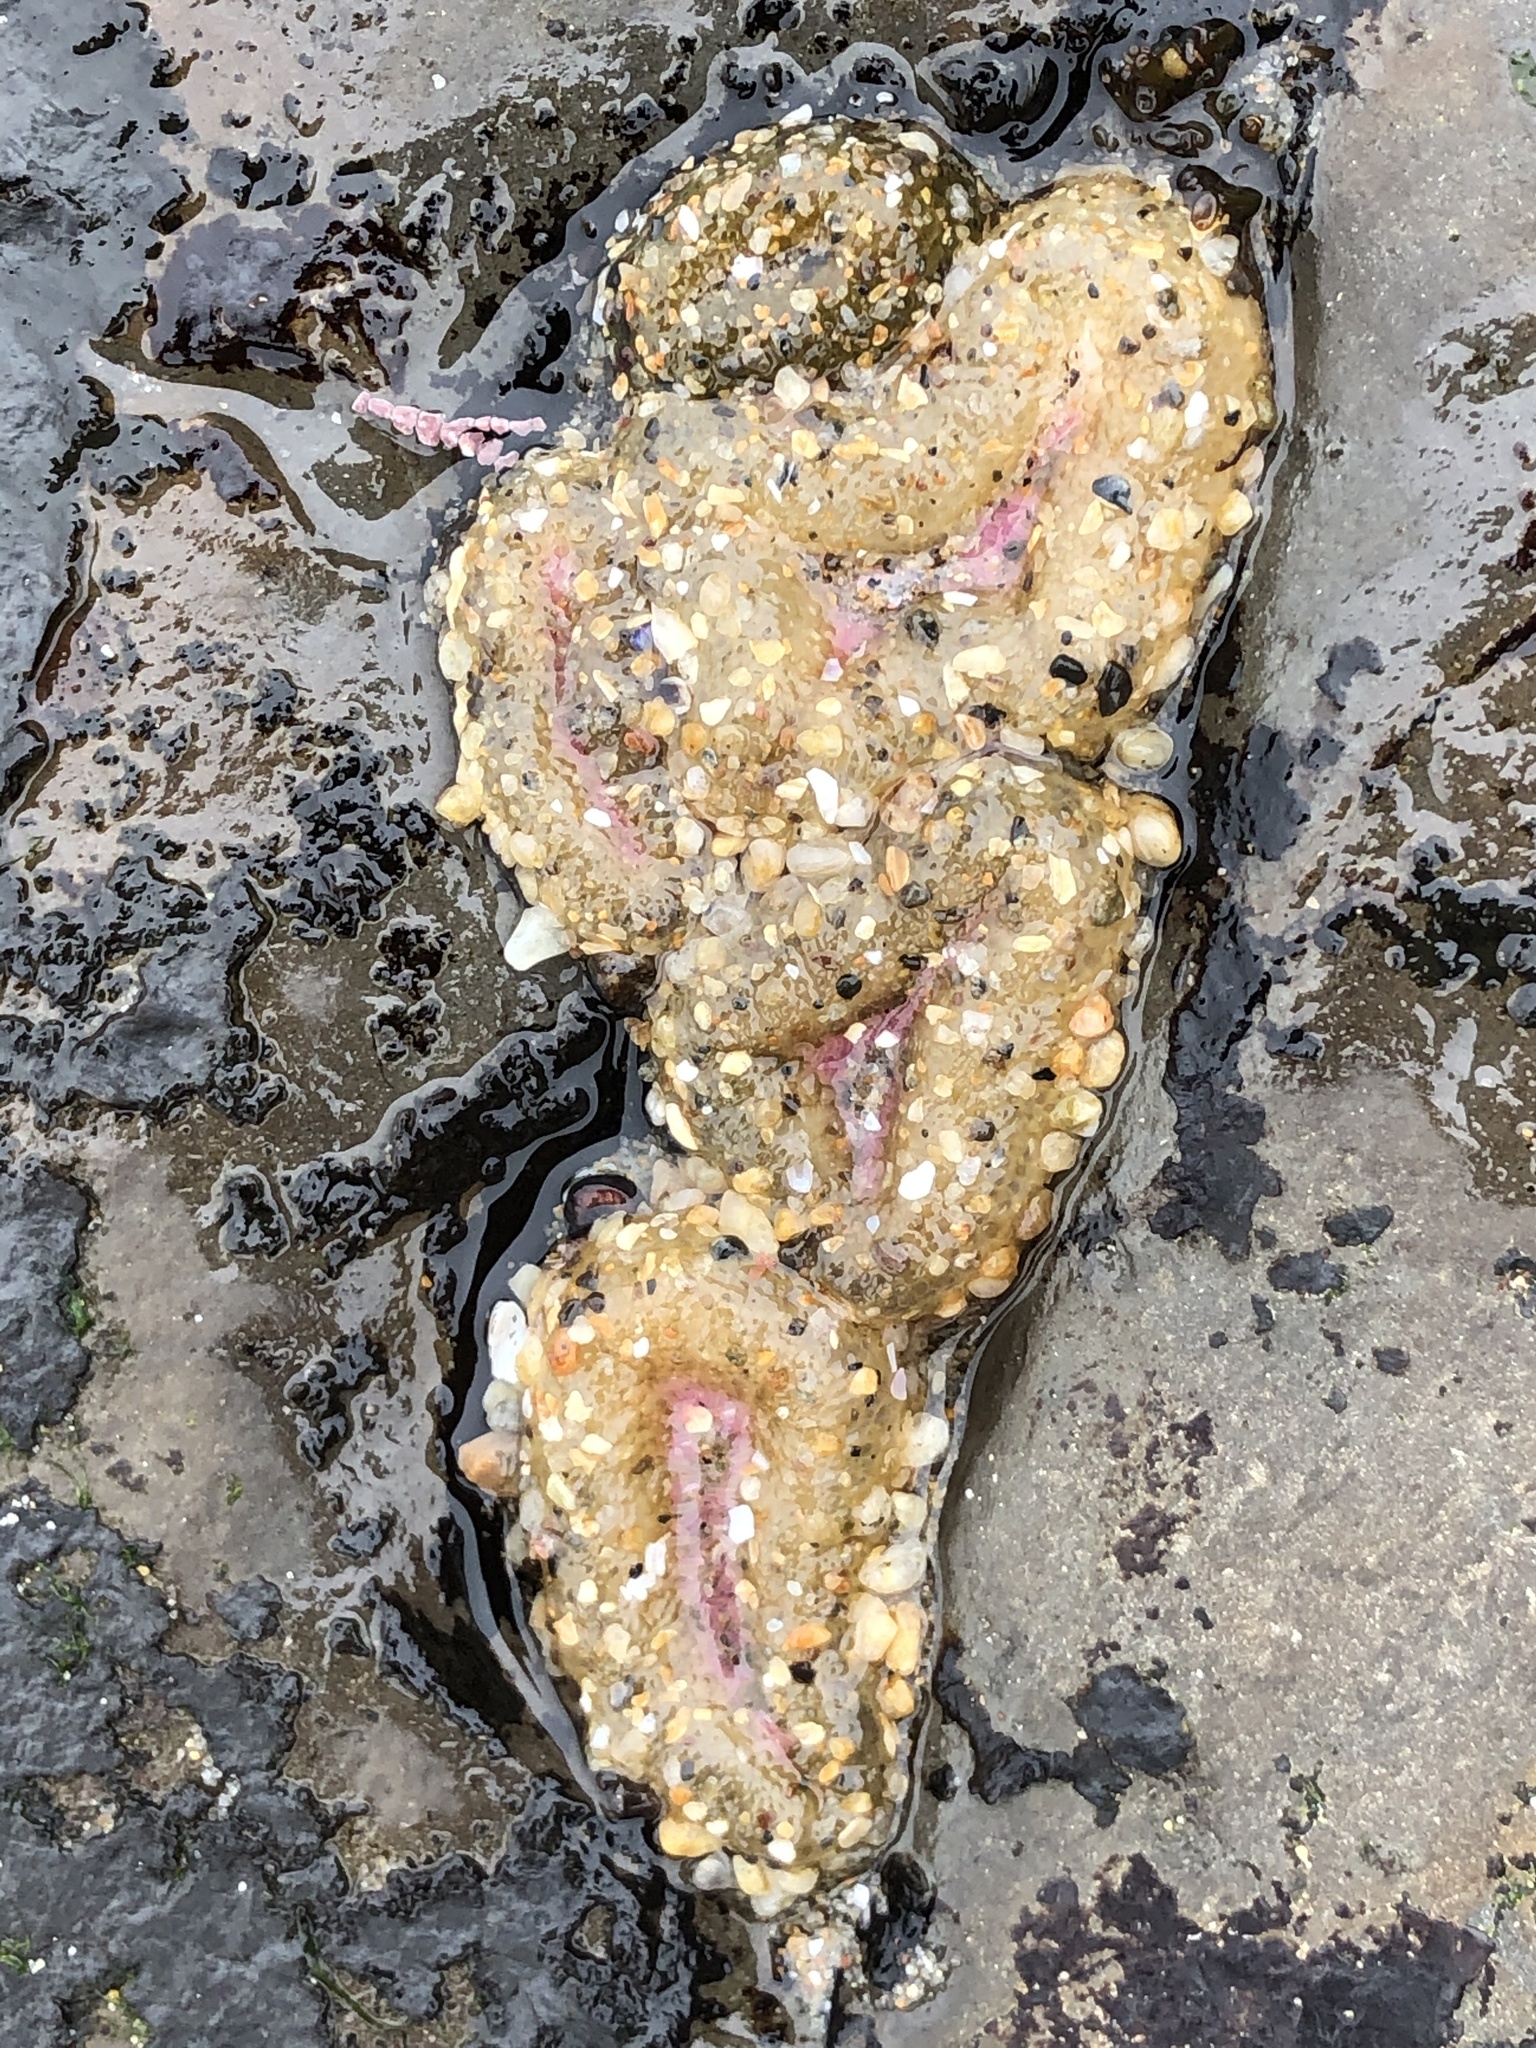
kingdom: Animalia
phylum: Cnidaria
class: Anthozoa
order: Actiniaria
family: Actiniidae
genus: Anthopleura
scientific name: Anthopleura elegantissima
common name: Clonal anemone
